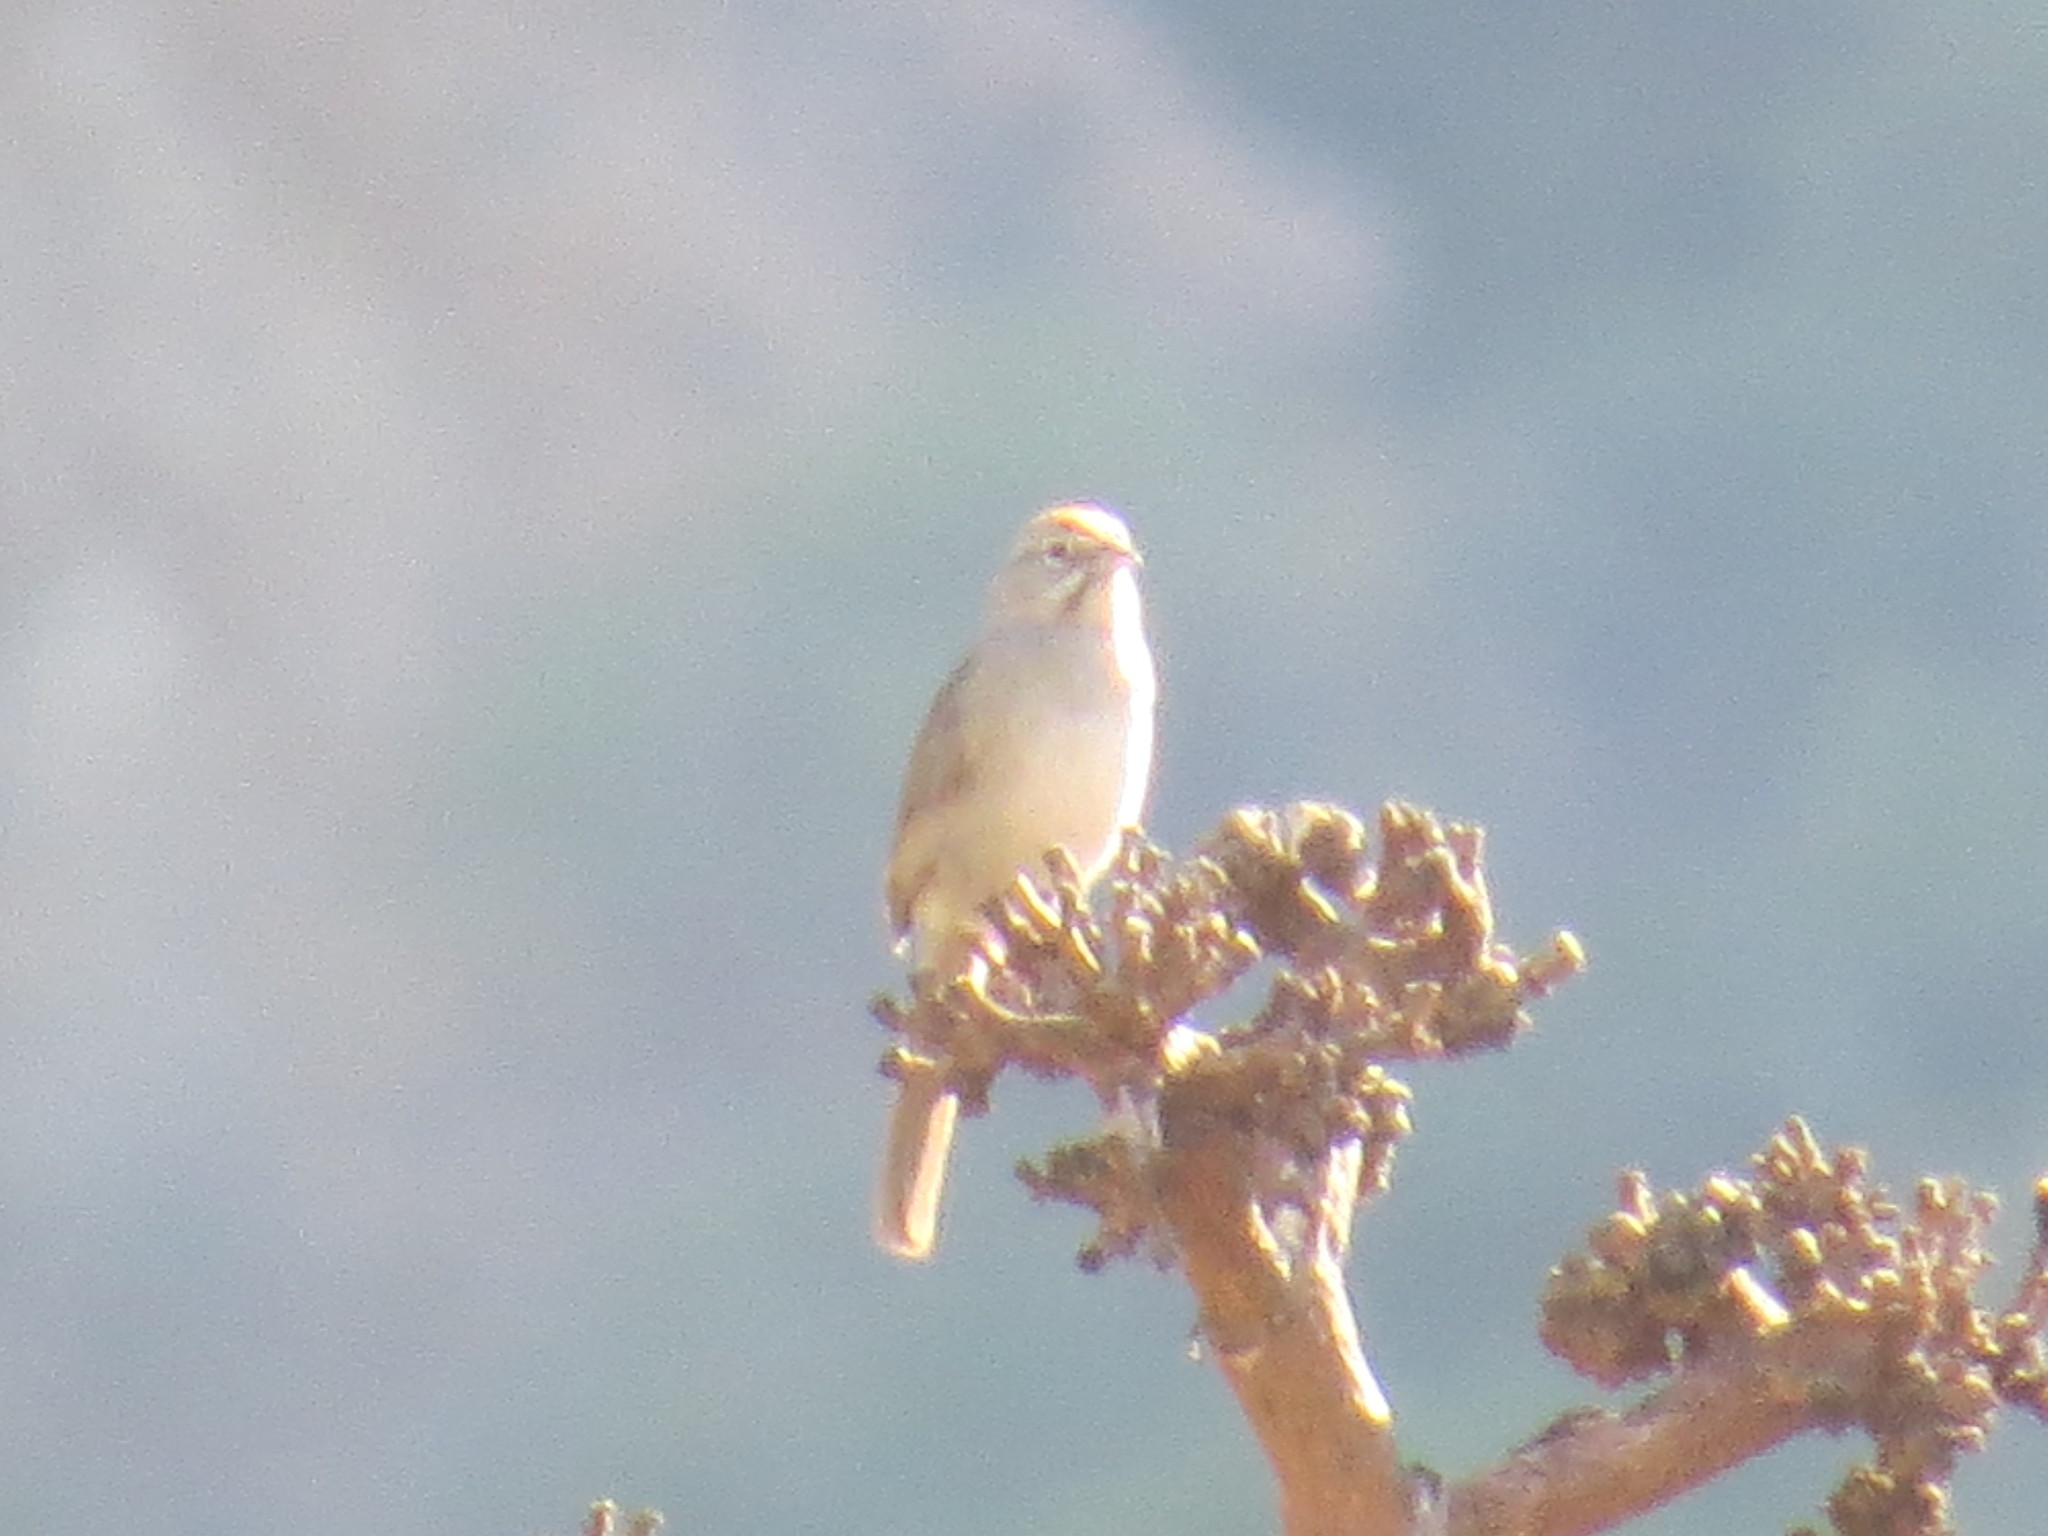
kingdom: Animalia
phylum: Chordata
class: Aves
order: Passeriformes
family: Passerellidae
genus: Aimophila
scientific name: Aimophila ruficeps
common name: Rufous-crowned sparrow
